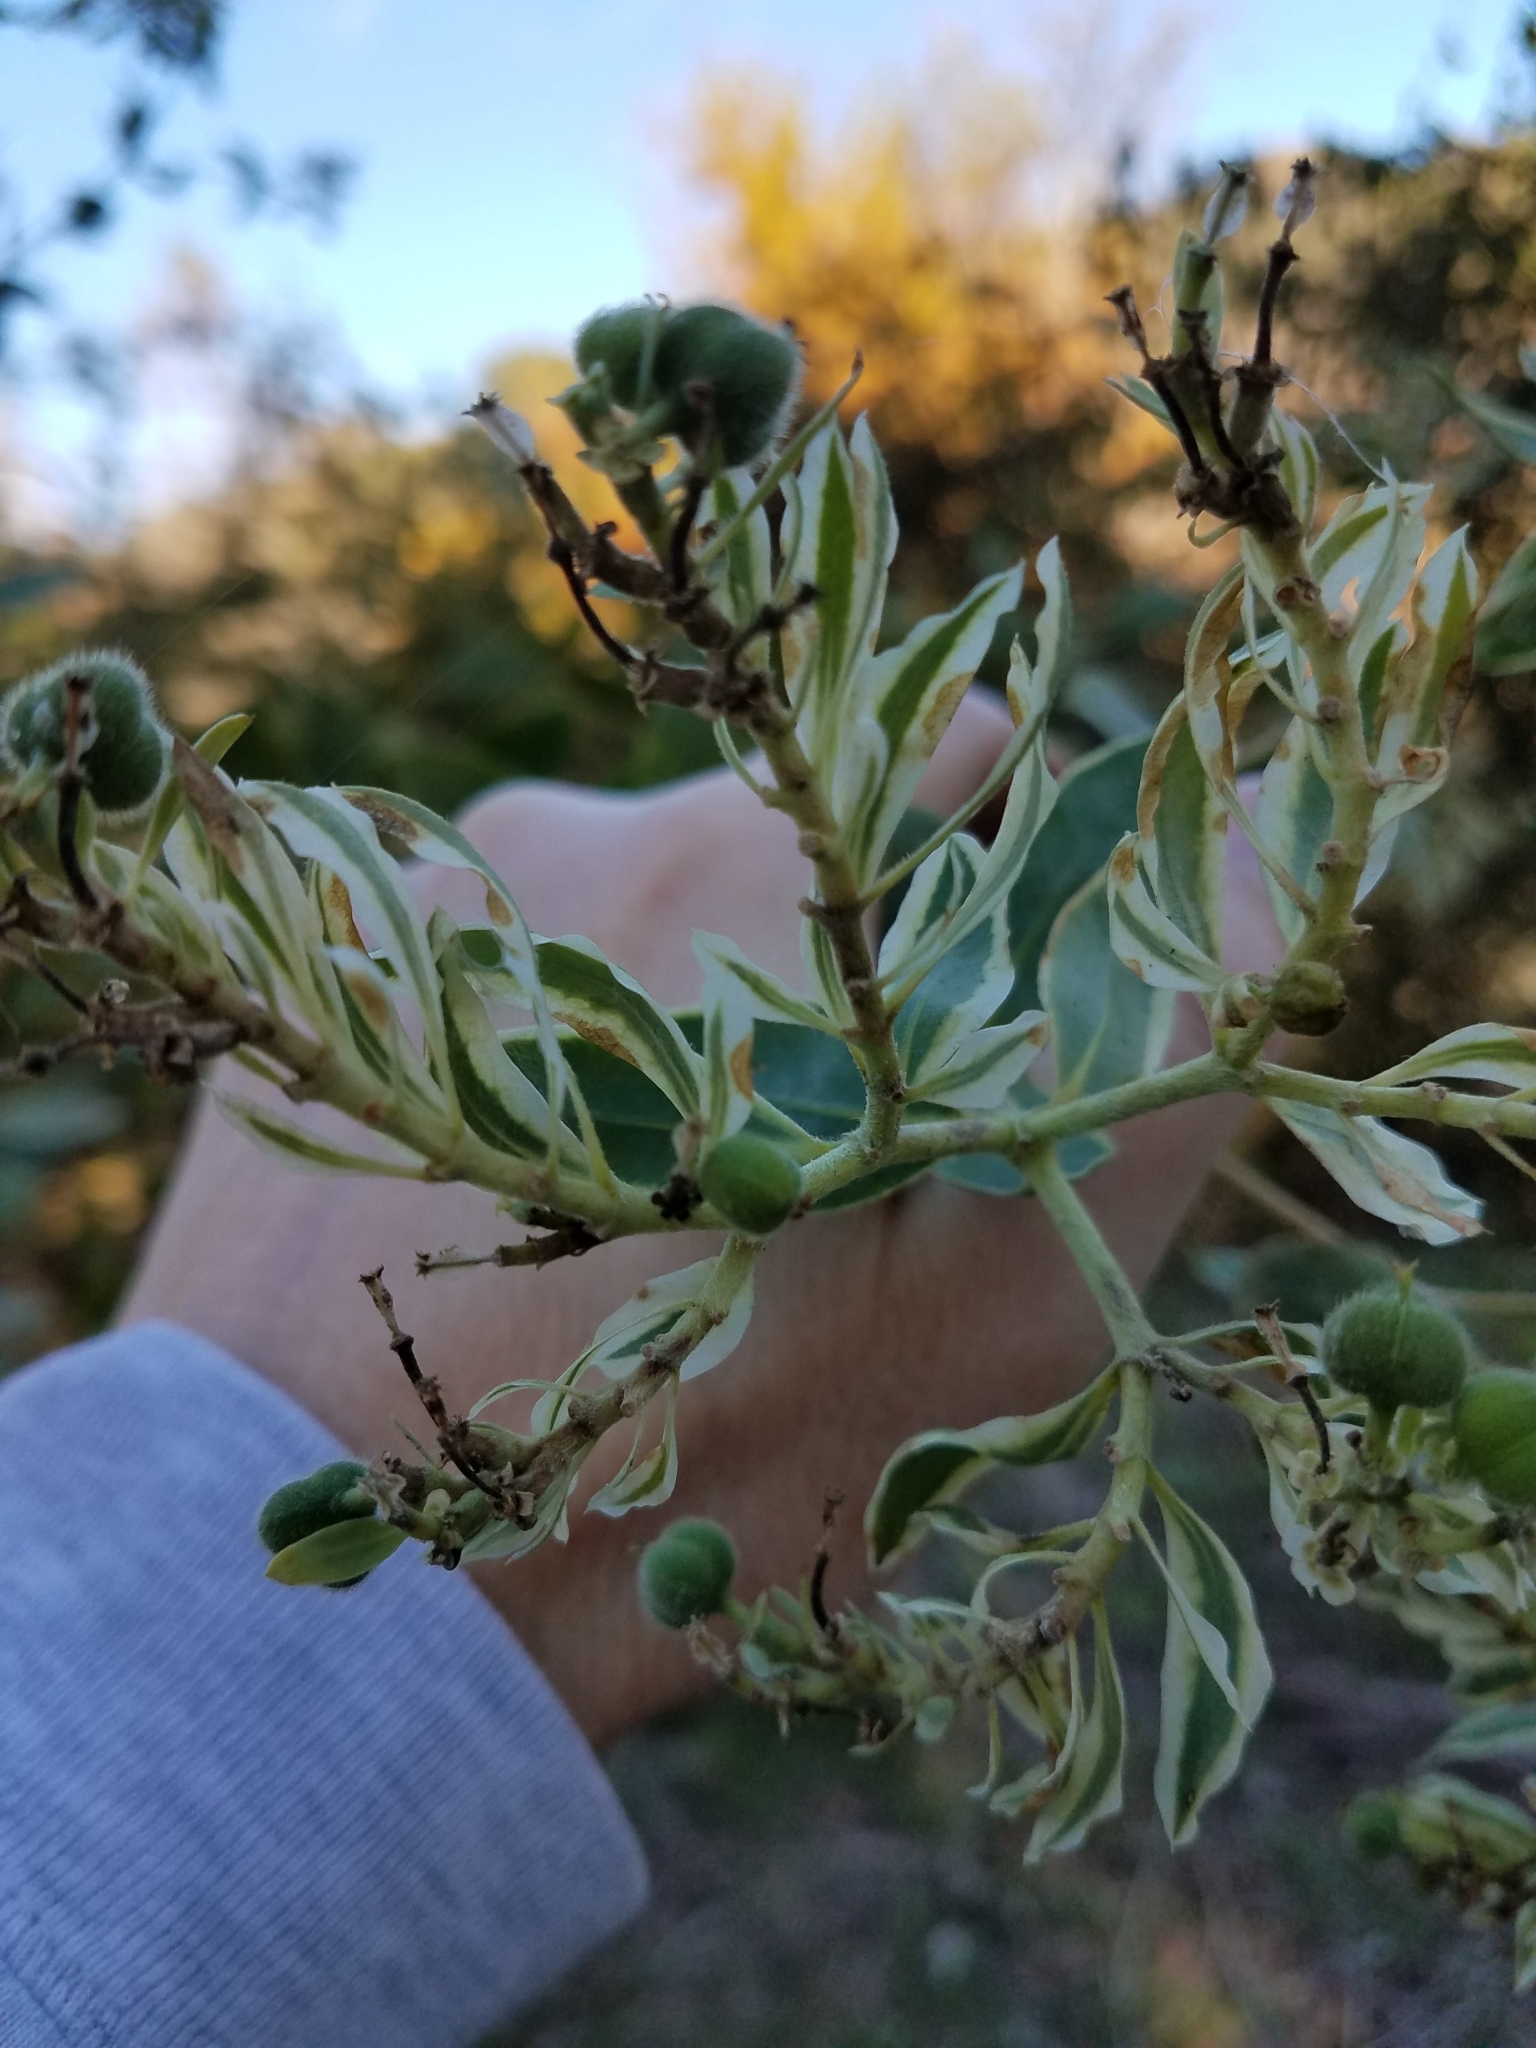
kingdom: Plantae
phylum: Tracheophyta
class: Magnoliopsida
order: Malpighiales
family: Euphorbiaceae
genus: Euphorbia
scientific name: Euphorbia marginata
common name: Ghostweed
